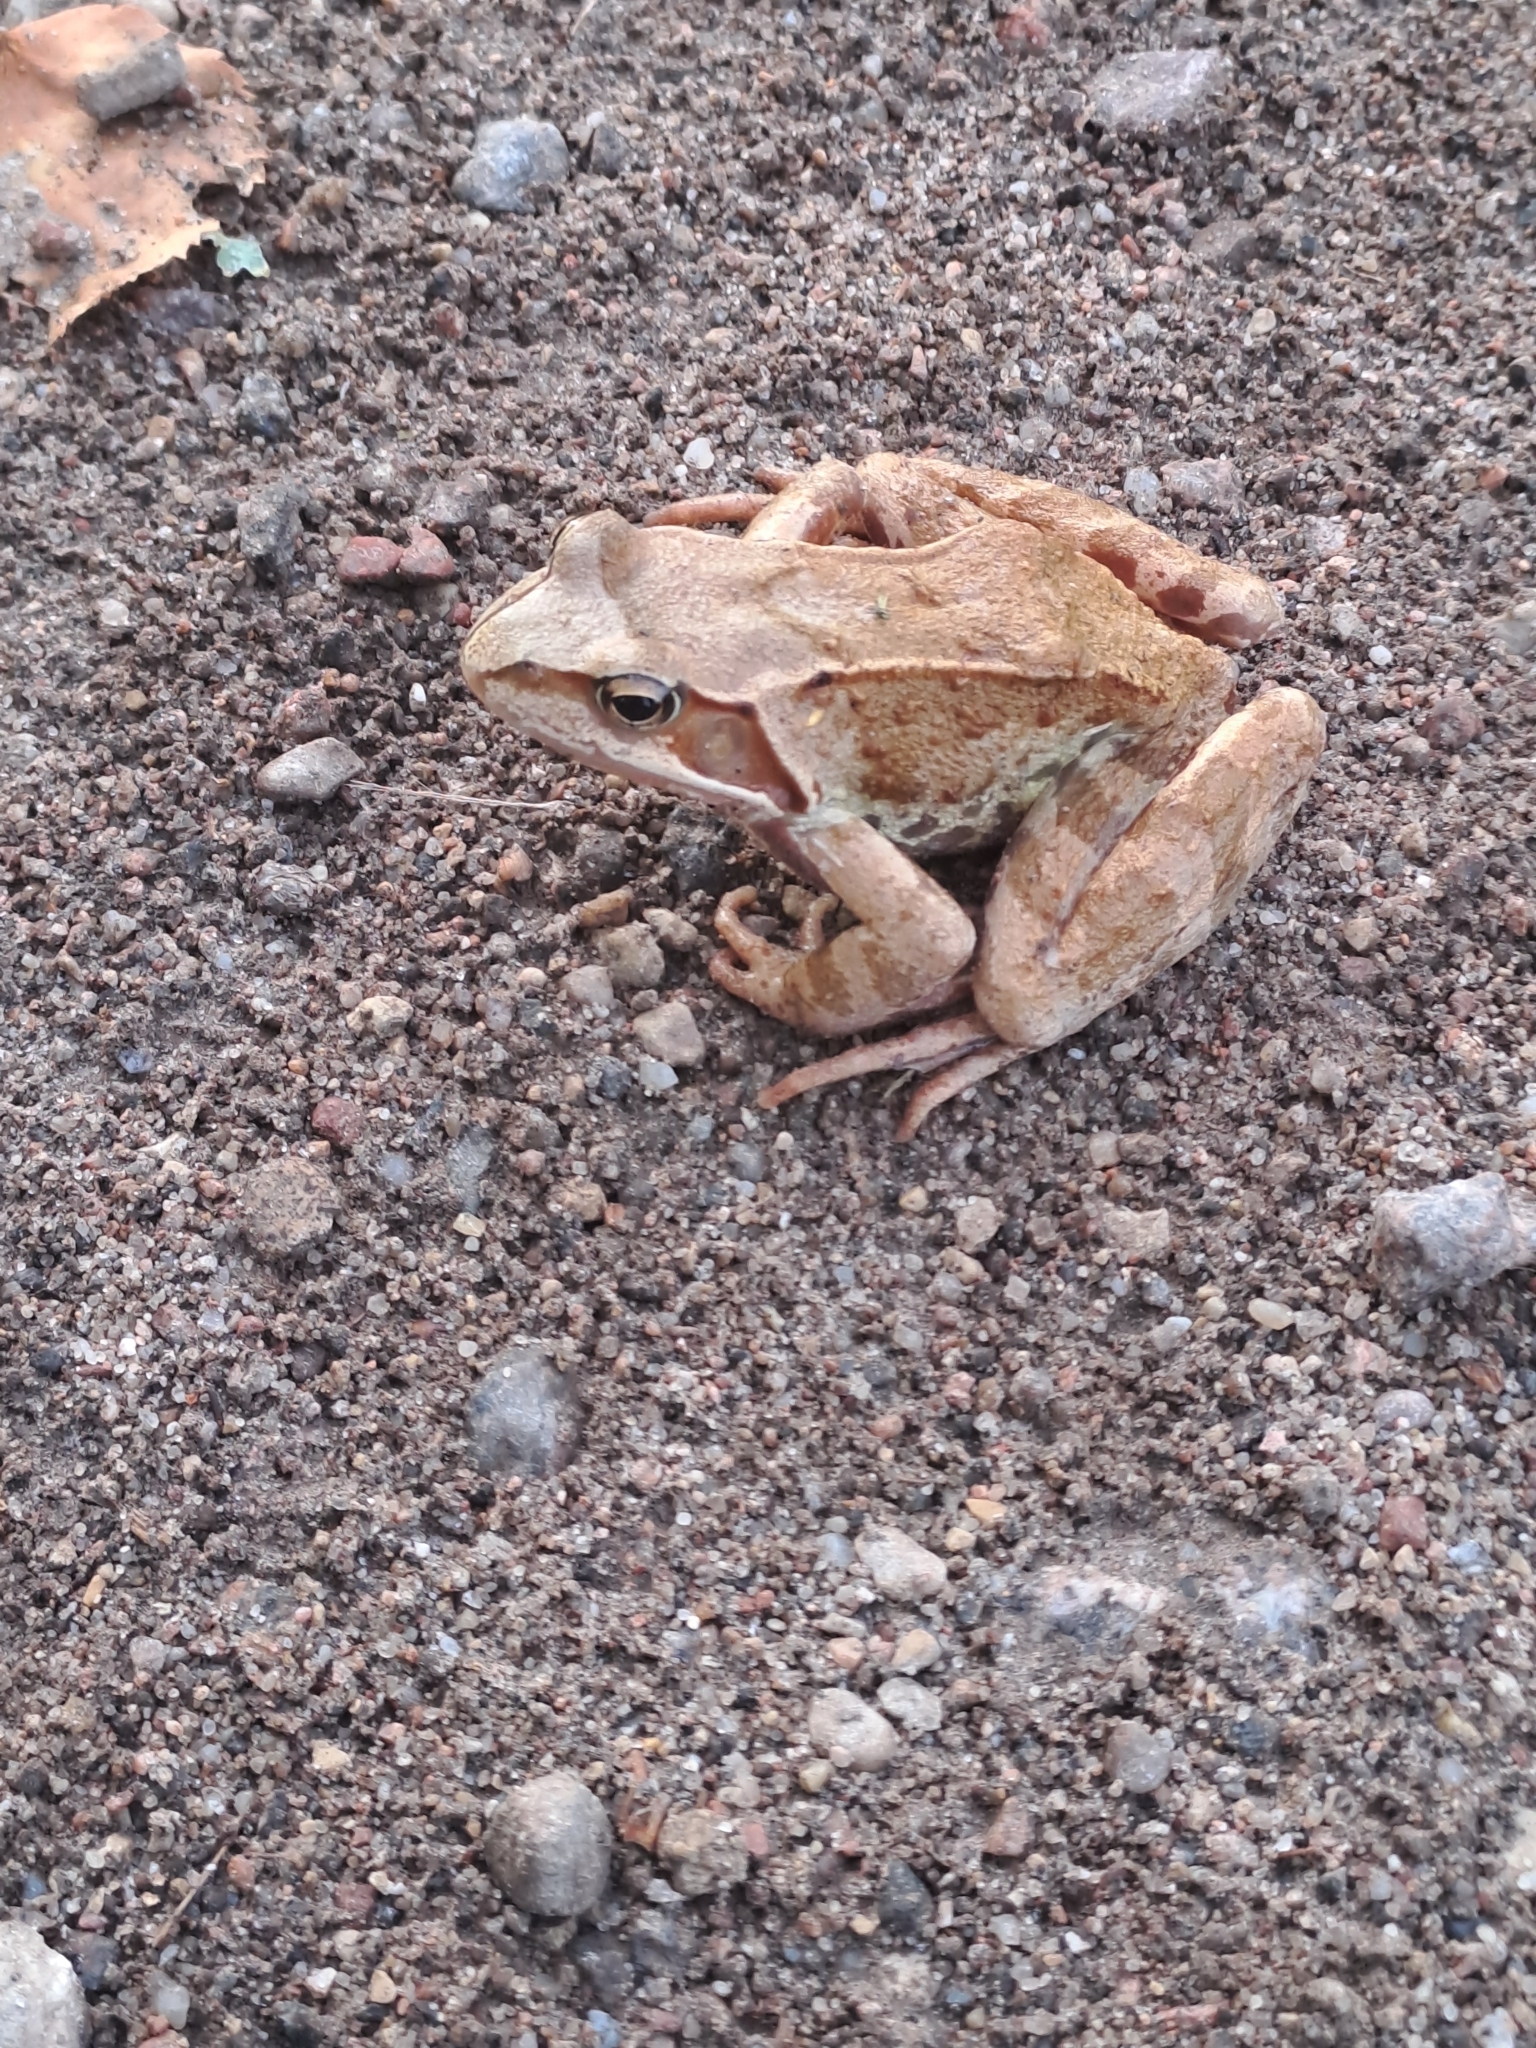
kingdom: Animalia
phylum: Chordata
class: Amphibia
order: Anura
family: Ranidae
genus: Rana
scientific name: Rana temporaria
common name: Common frog
